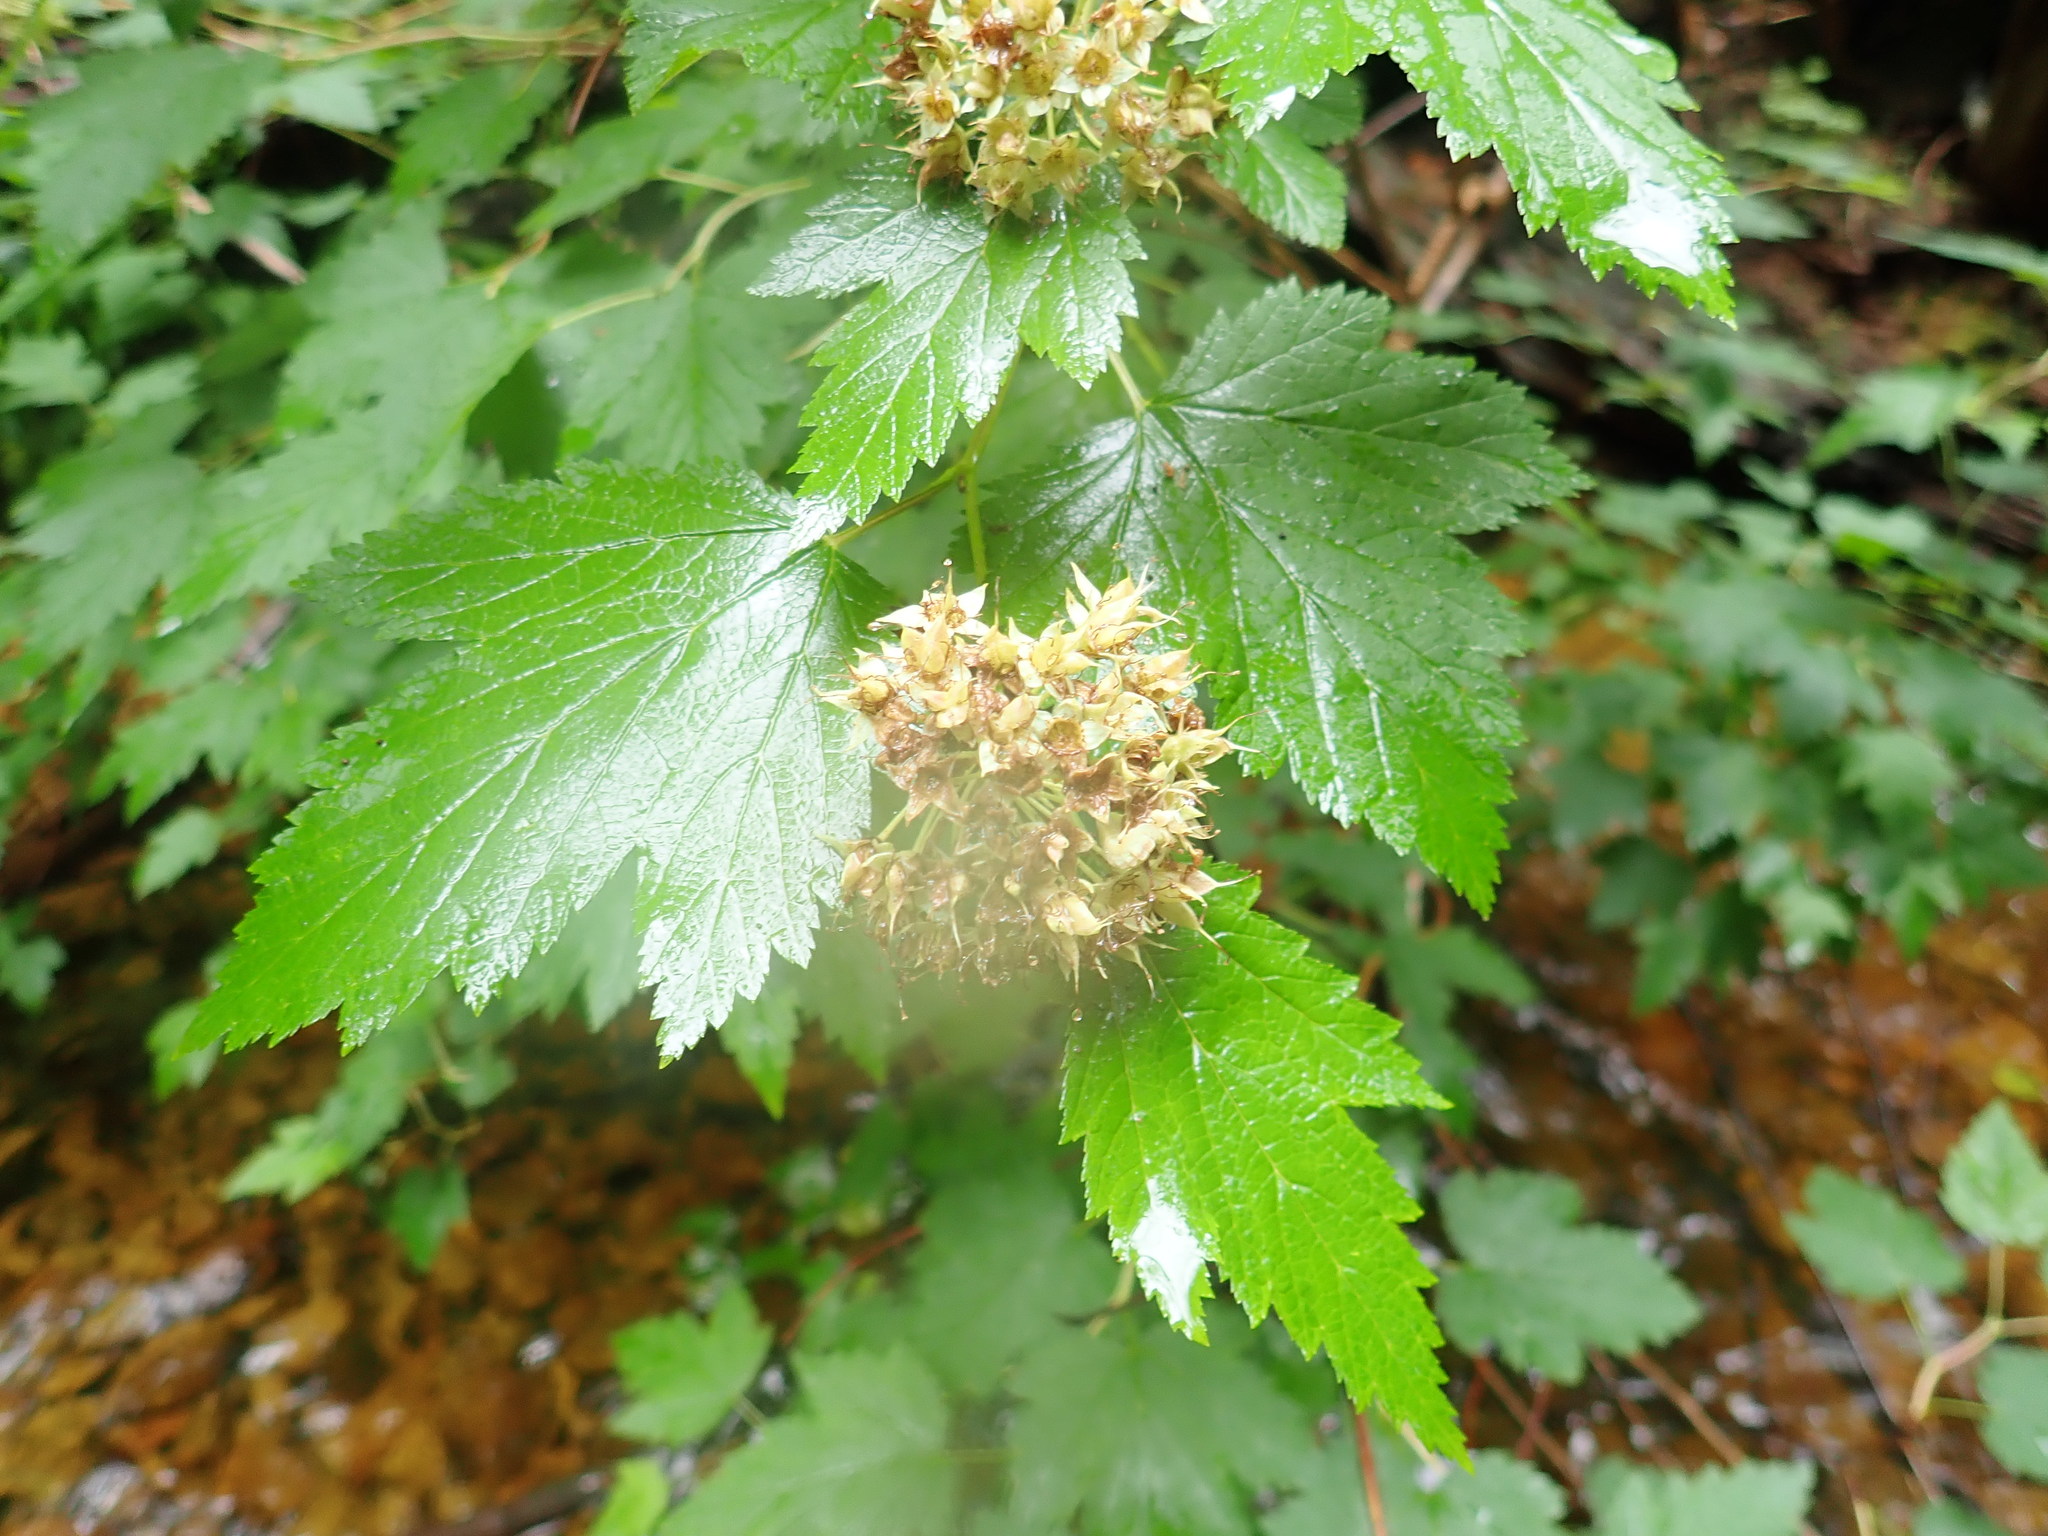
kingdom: Plantae
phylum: Tracheophyta
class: Magnoliopsida
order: Rosales
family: Rosaceae
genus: Physocarpus
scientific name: Physocarpus capitatus
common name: Pacific ninebark
